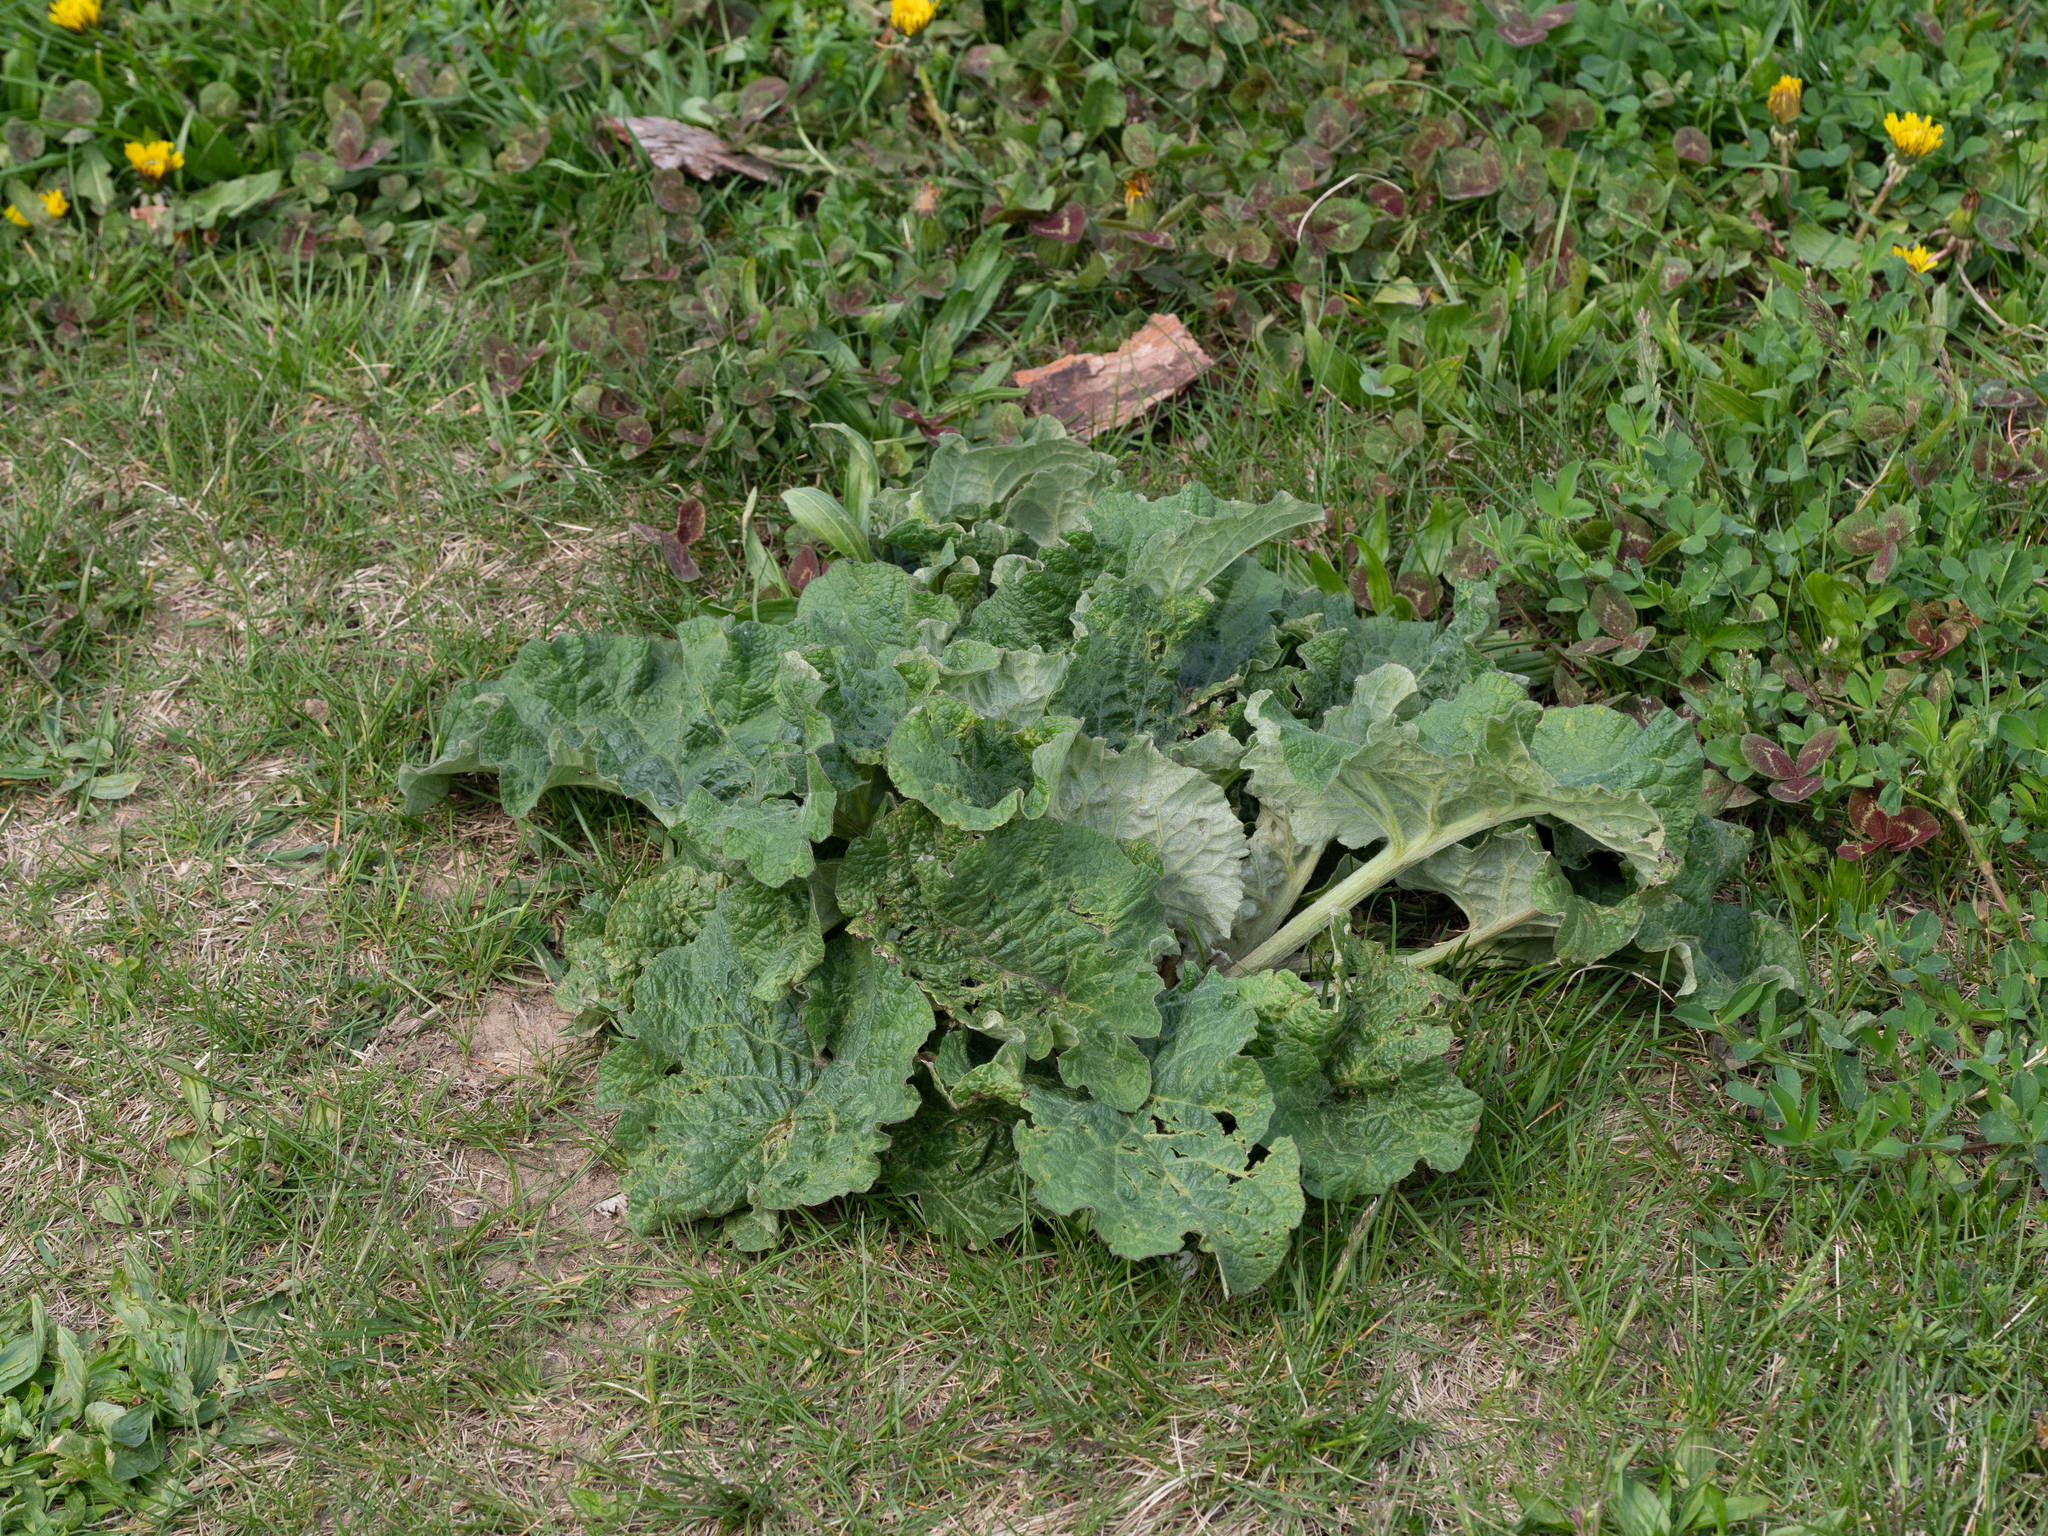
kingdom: Plantae
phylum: Tracheophyta
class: Magnoliopsida
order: Asterales
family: Asteraceae
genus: Arctium
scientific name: Arctium
